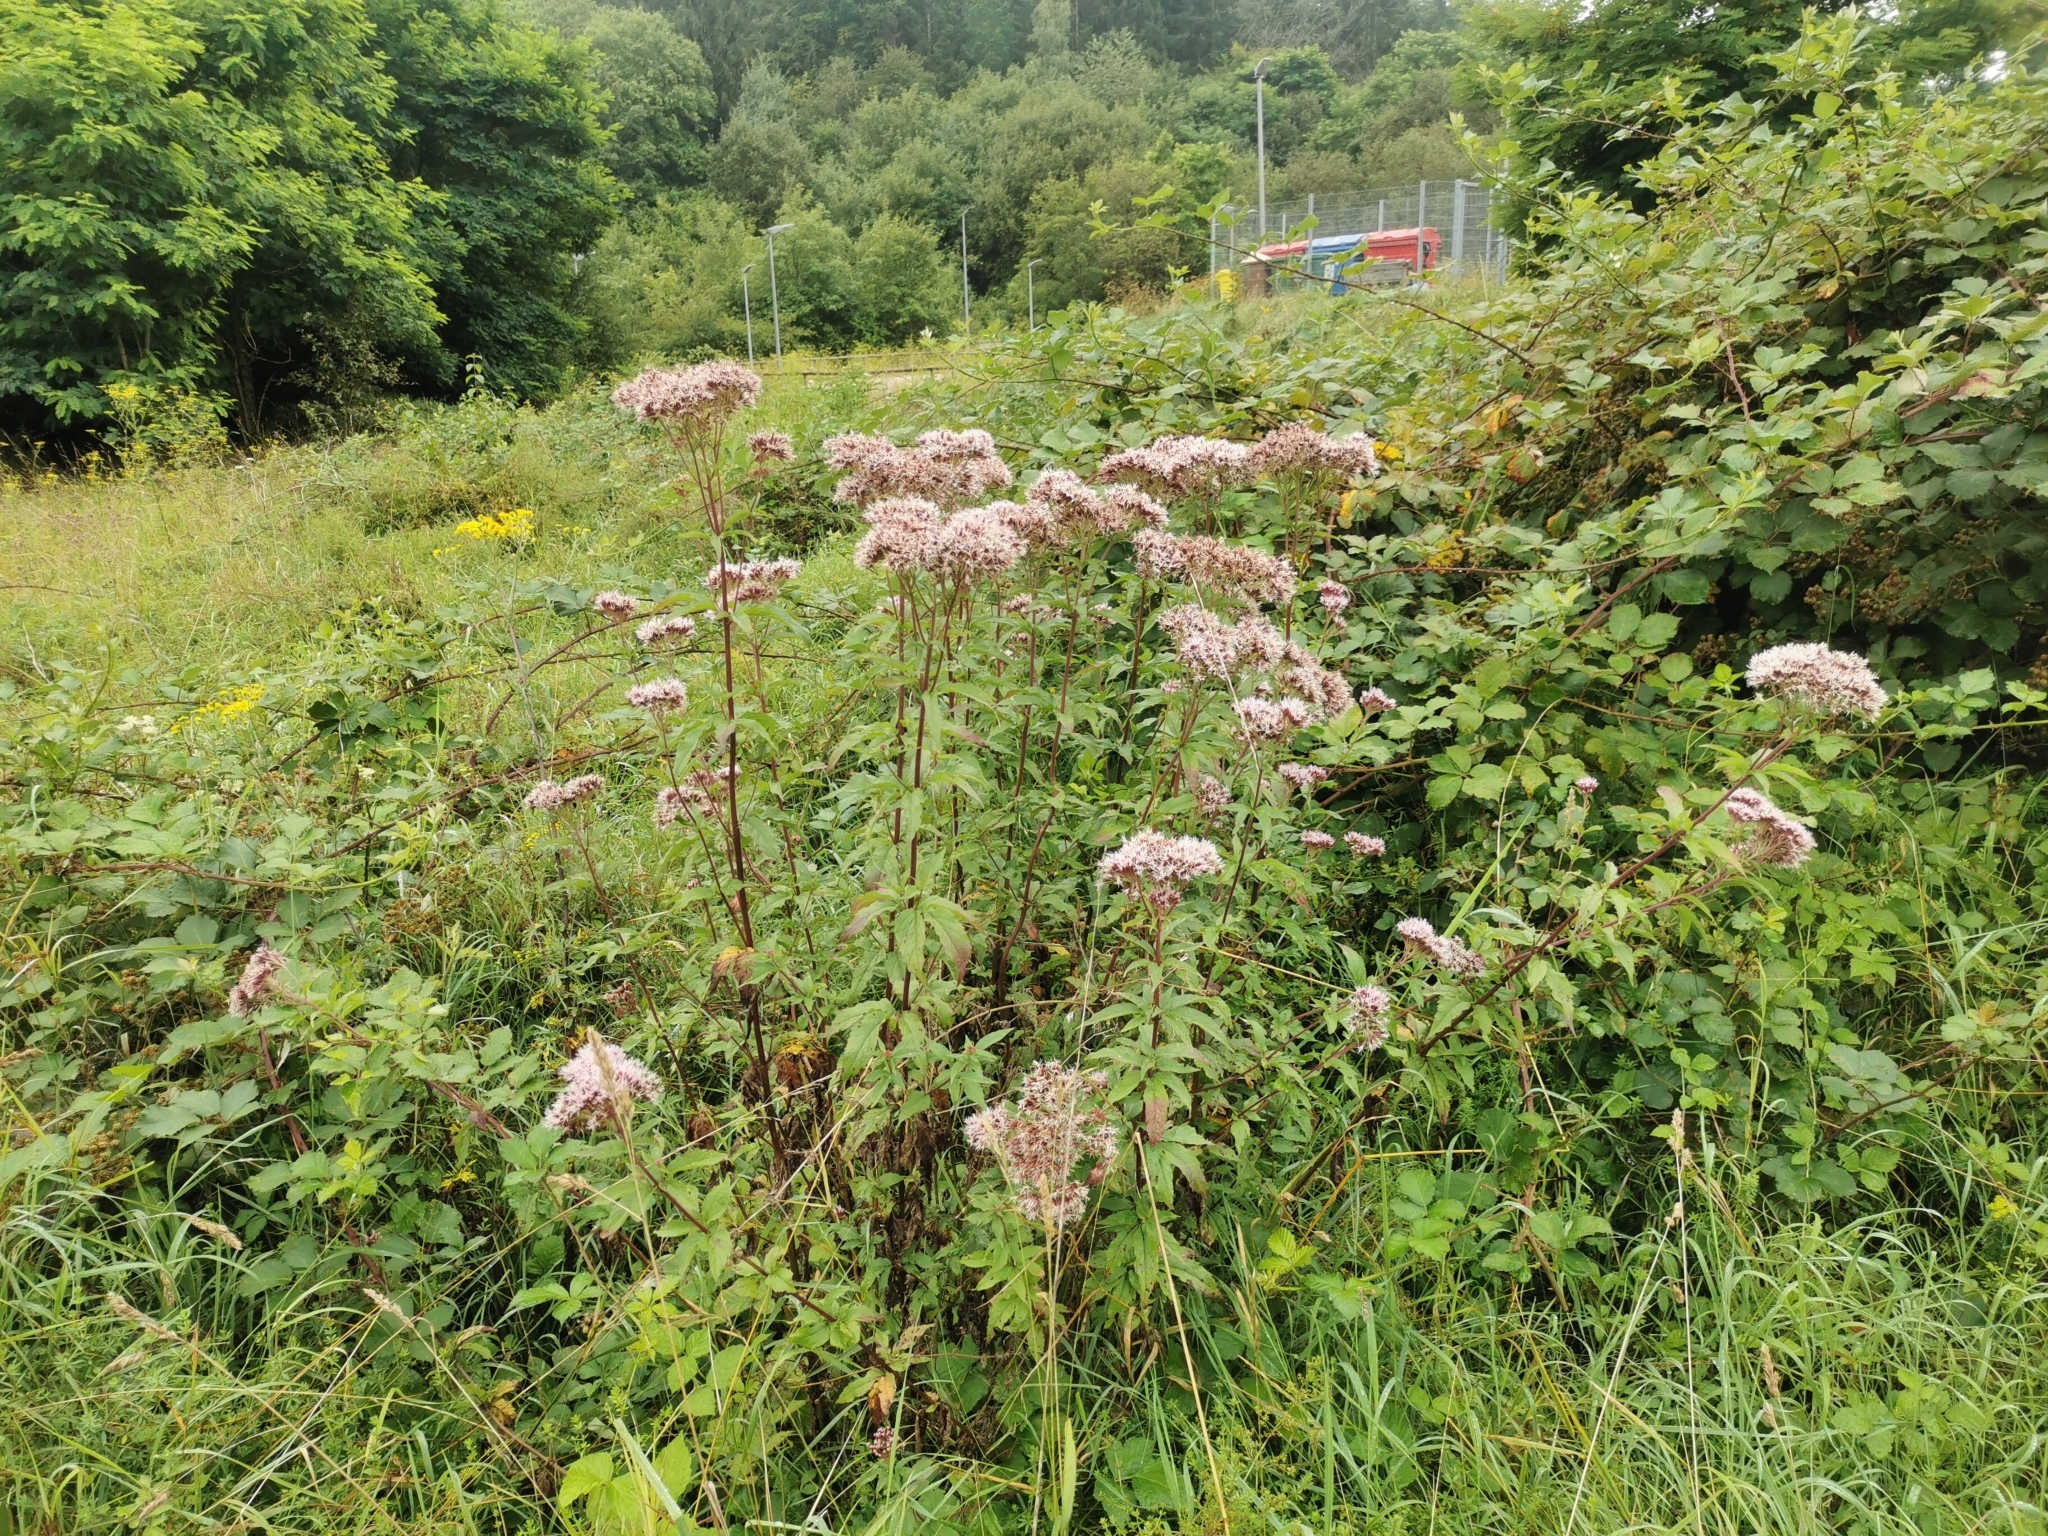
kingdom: Plantae
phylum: Tracheophyta
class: Magnoliopsida
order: Asterales
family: Asteraceae
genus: Eupatorium
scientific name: Eupatorium cannabinum
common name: Hemp-agrimony
